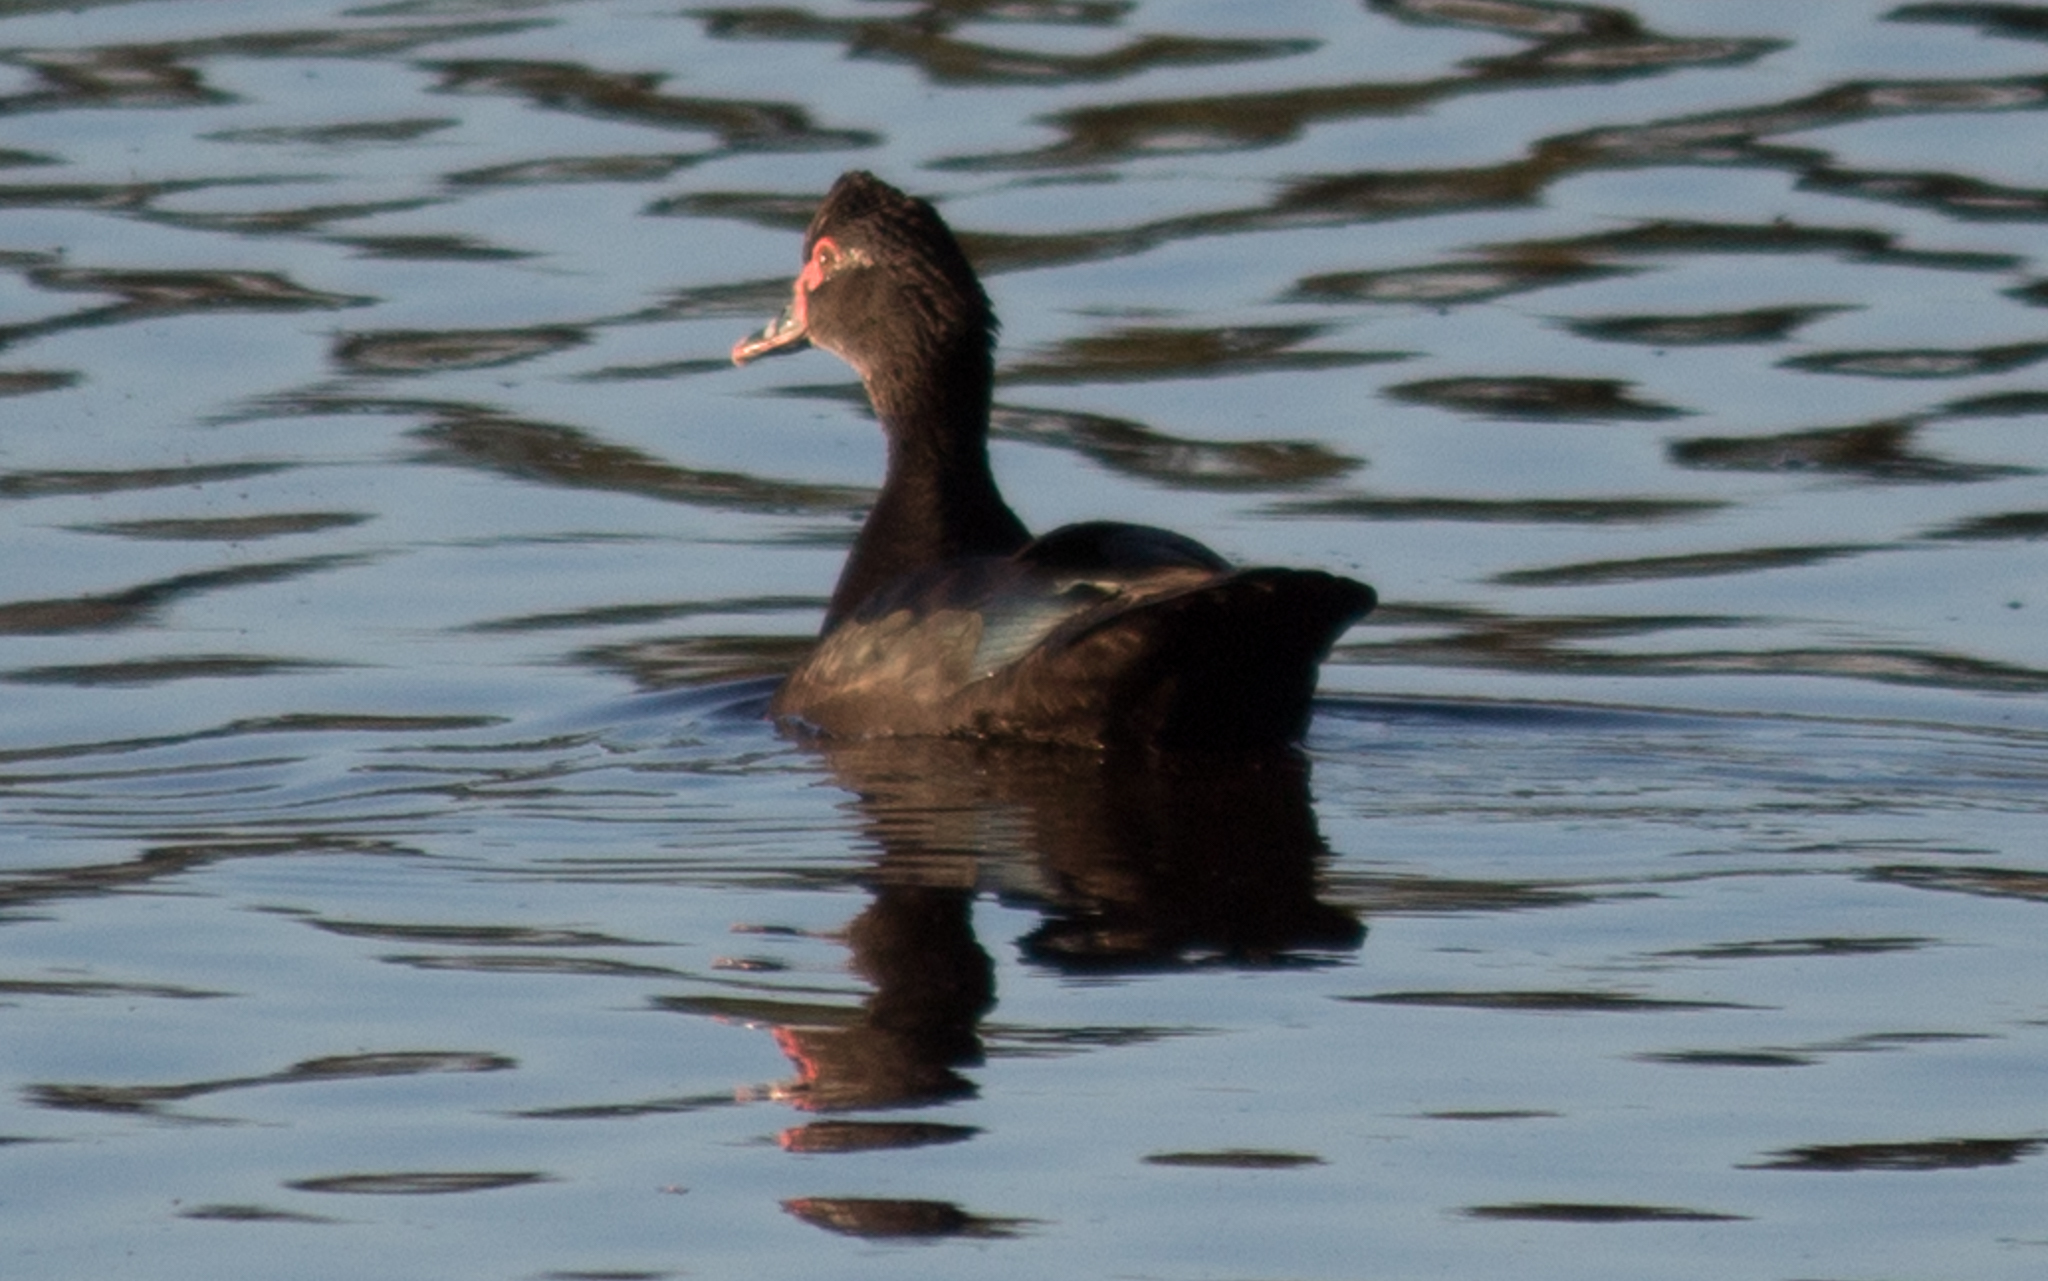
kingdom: Animalia
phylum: Chordata
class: Aves
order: Anseriformes
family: Anatidae
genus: Cairina
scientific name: Cairina moschata
